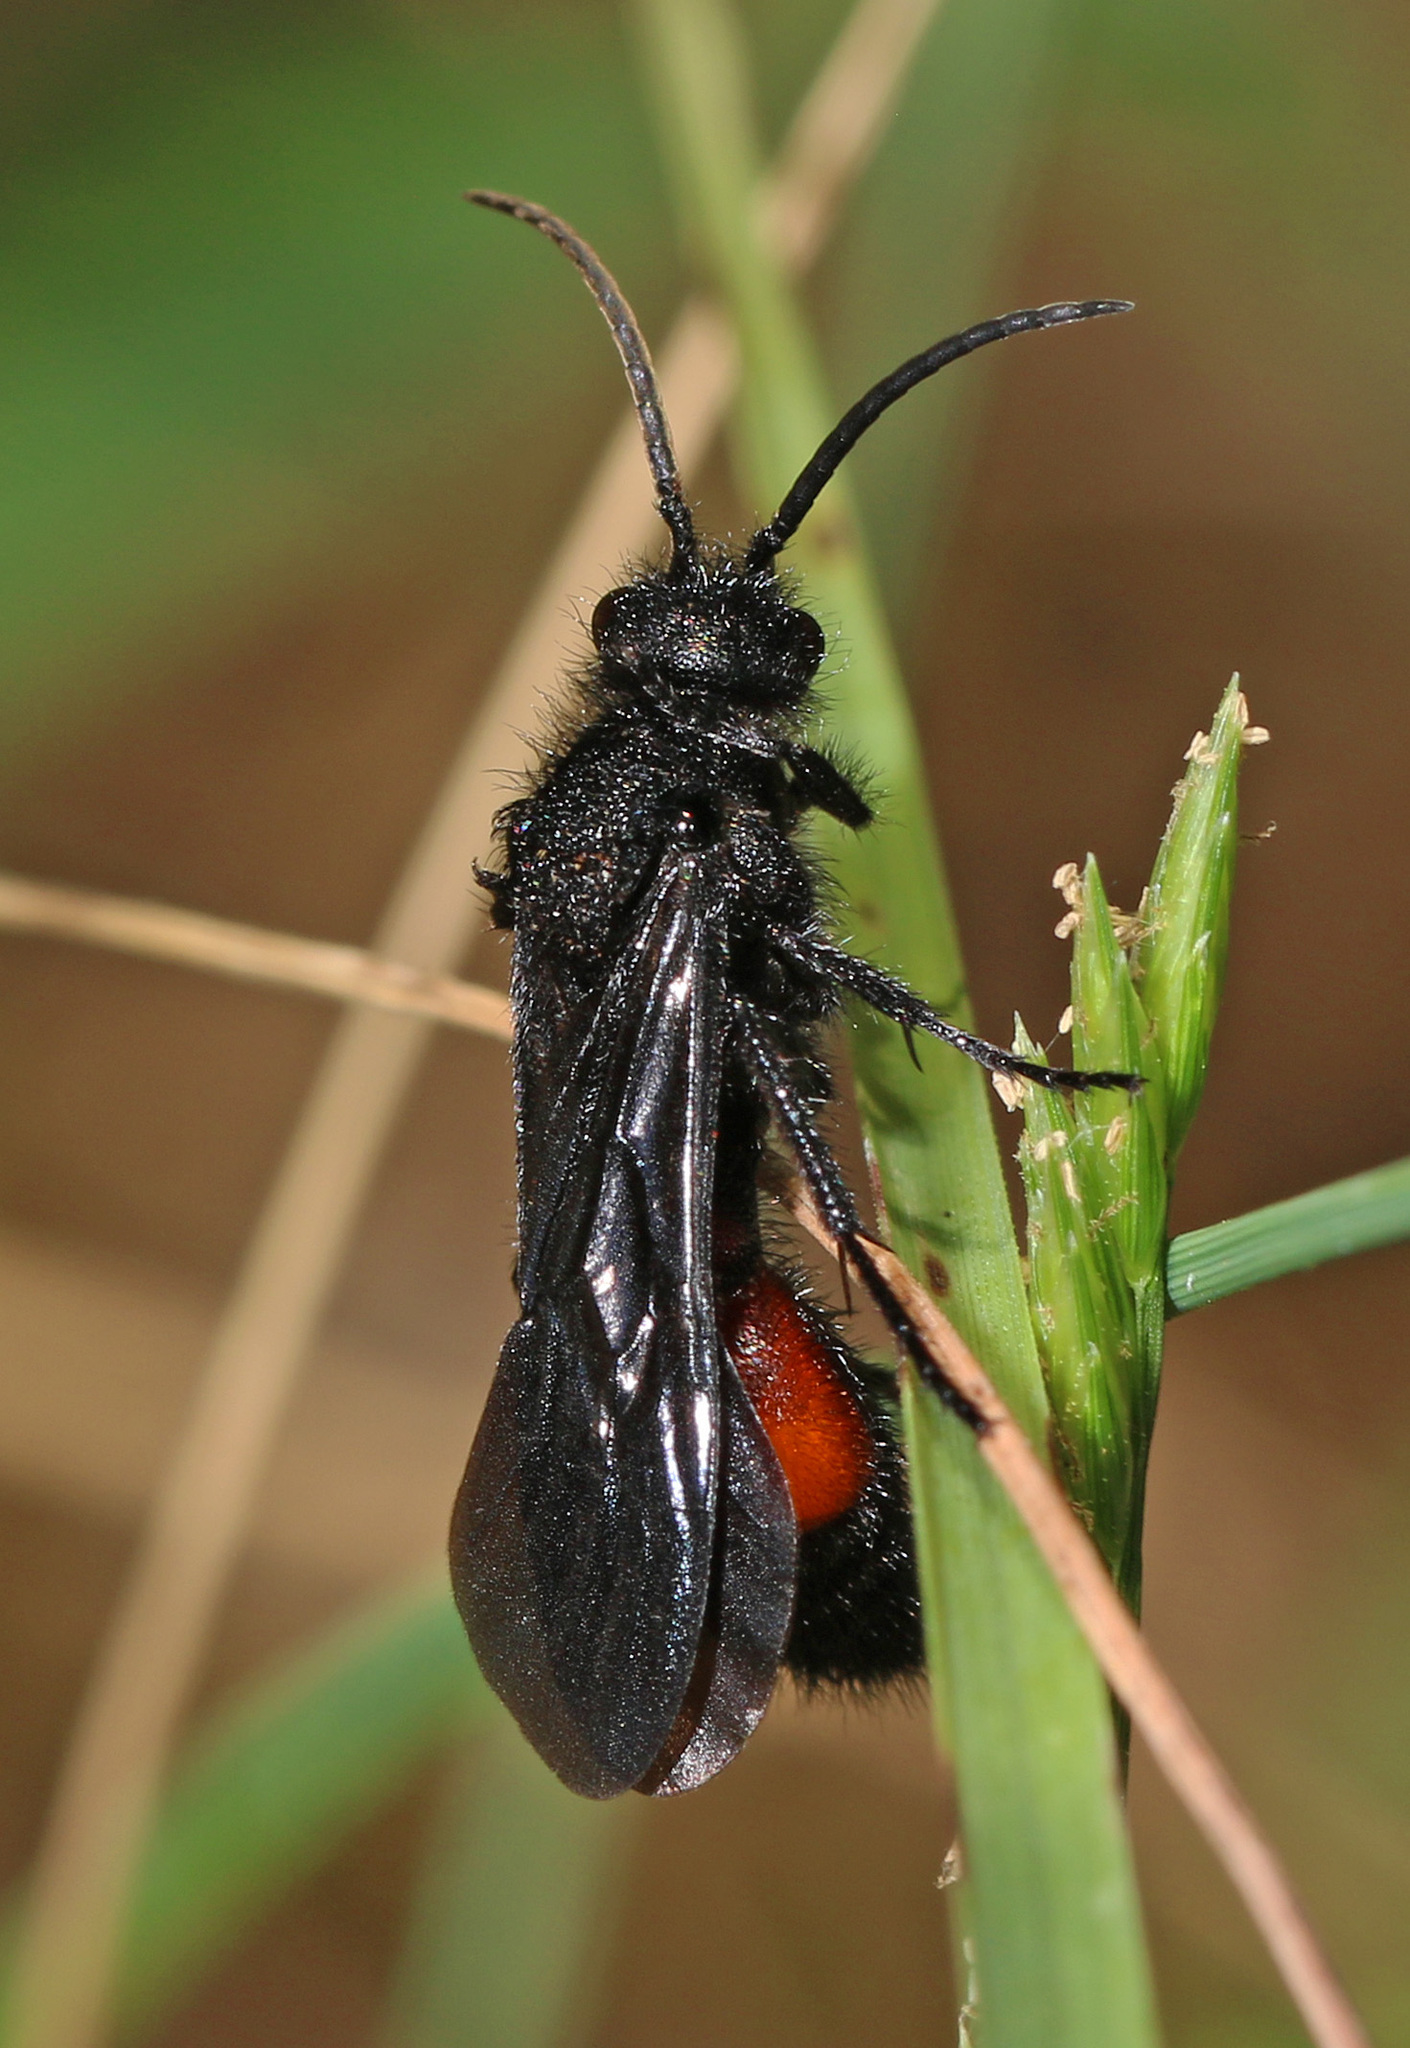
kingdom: Animalia
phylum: Arthropoda
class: Insecta
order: Hymenoptera
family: Mutillidae
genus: Dasymutilla
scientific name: Dasymutilla
